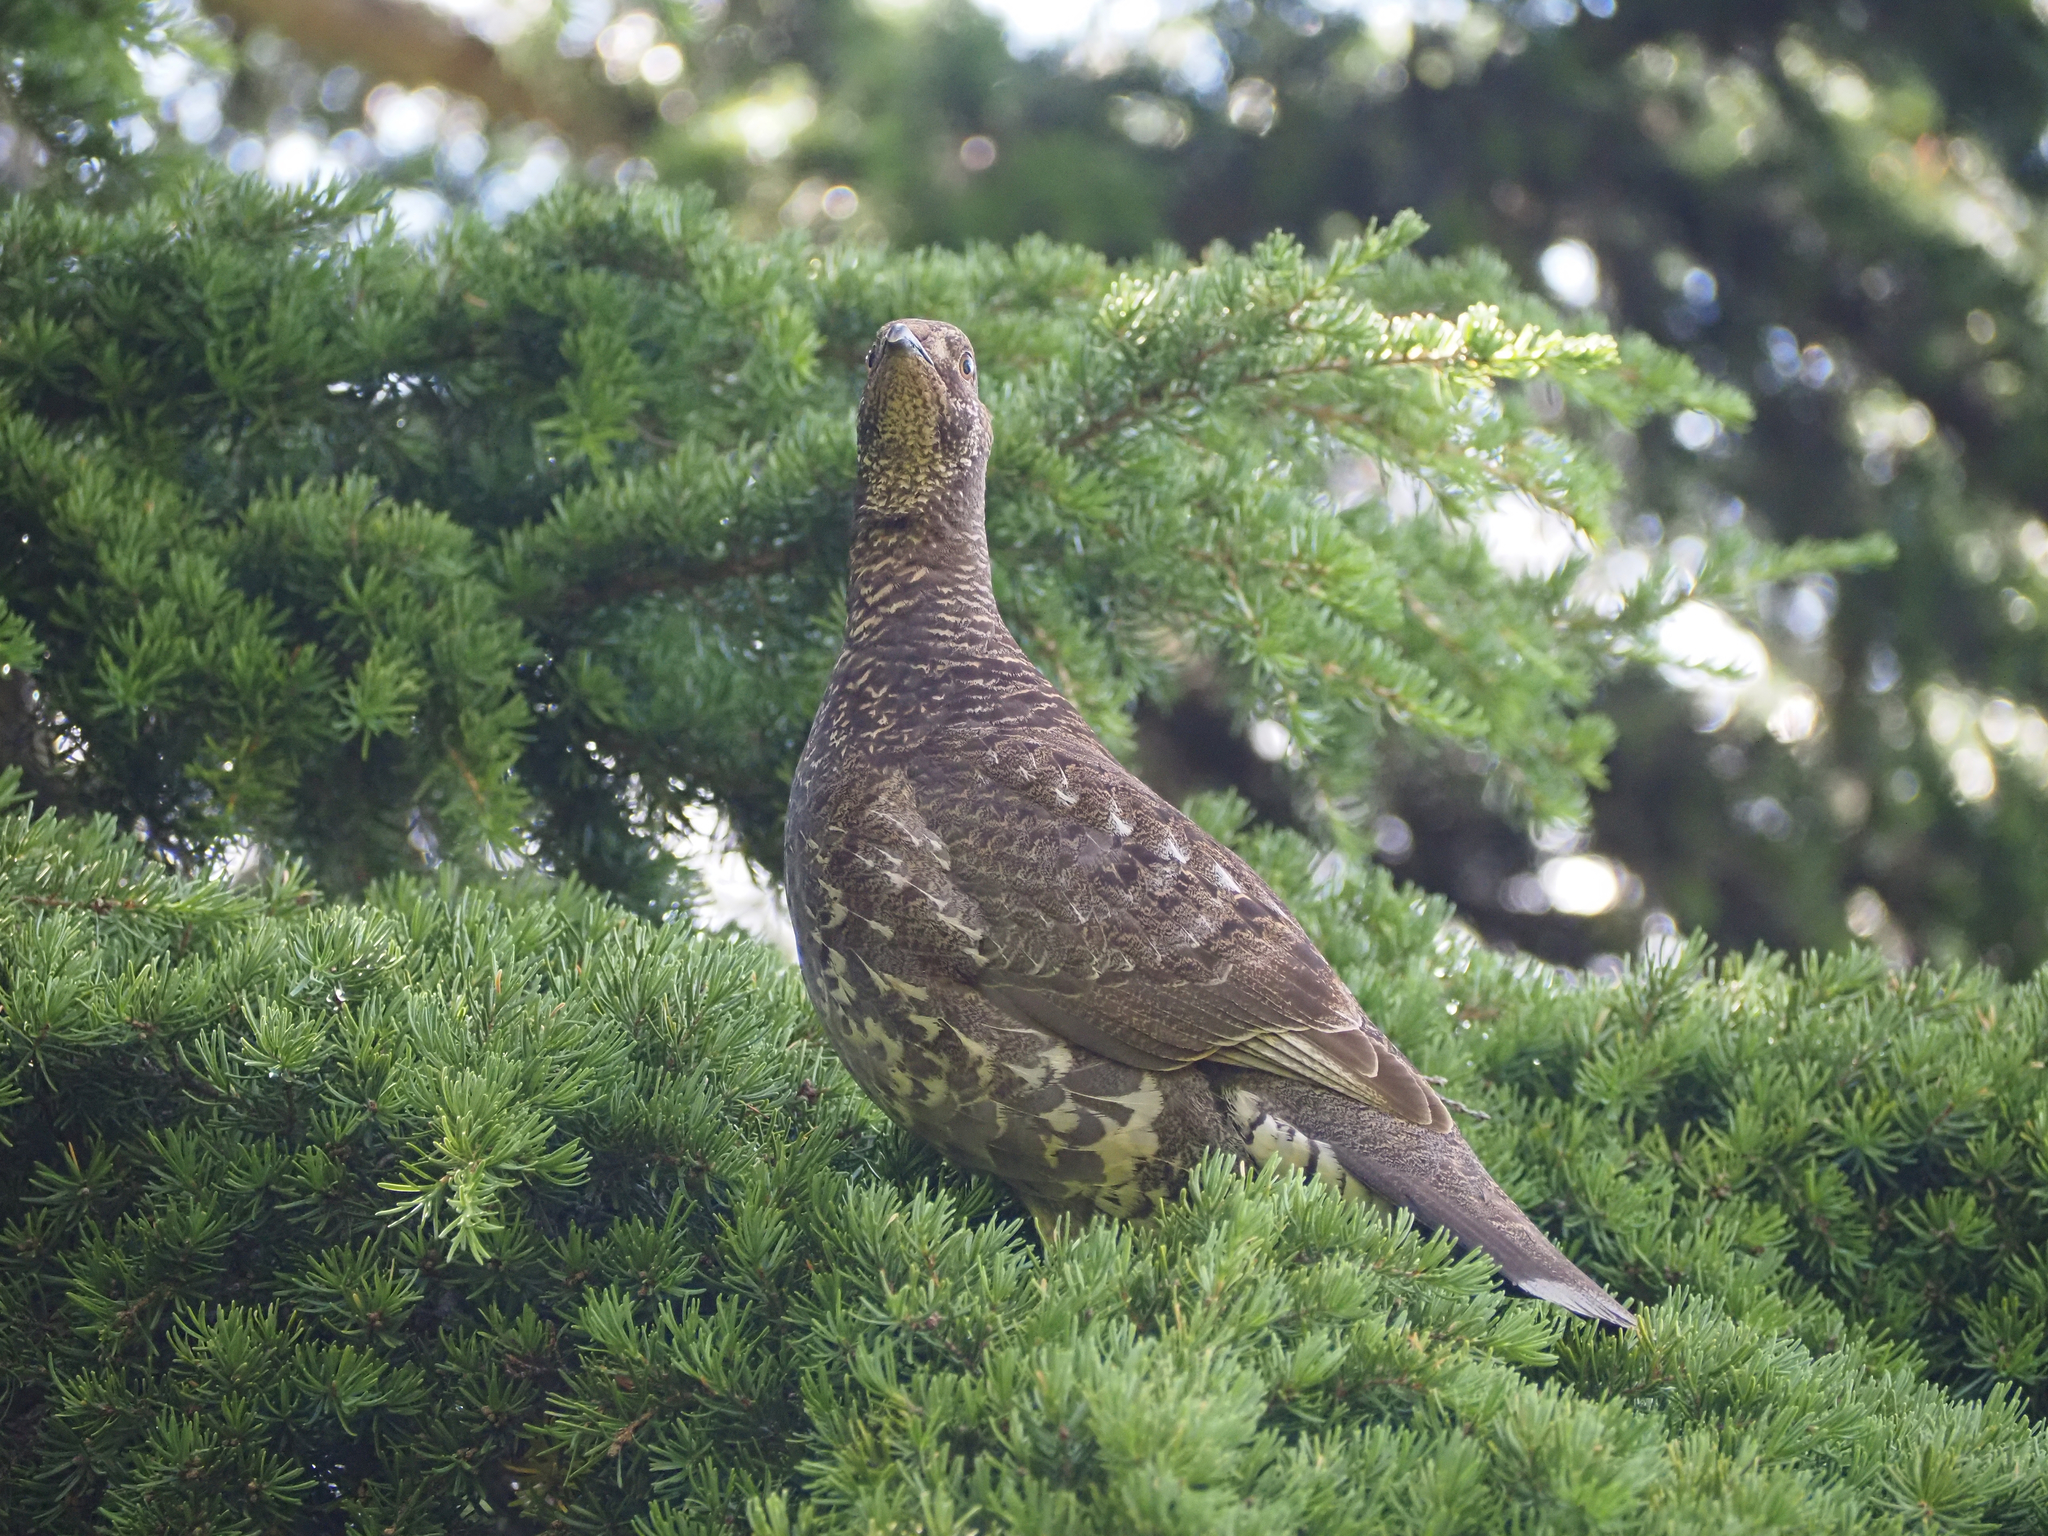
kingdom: Animalia
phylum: Chordata
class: Aves
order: Galliformes
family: Phasianidae
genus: Dendragapus
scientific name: Dendragapus fuliginosus
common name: Sooty grouse
